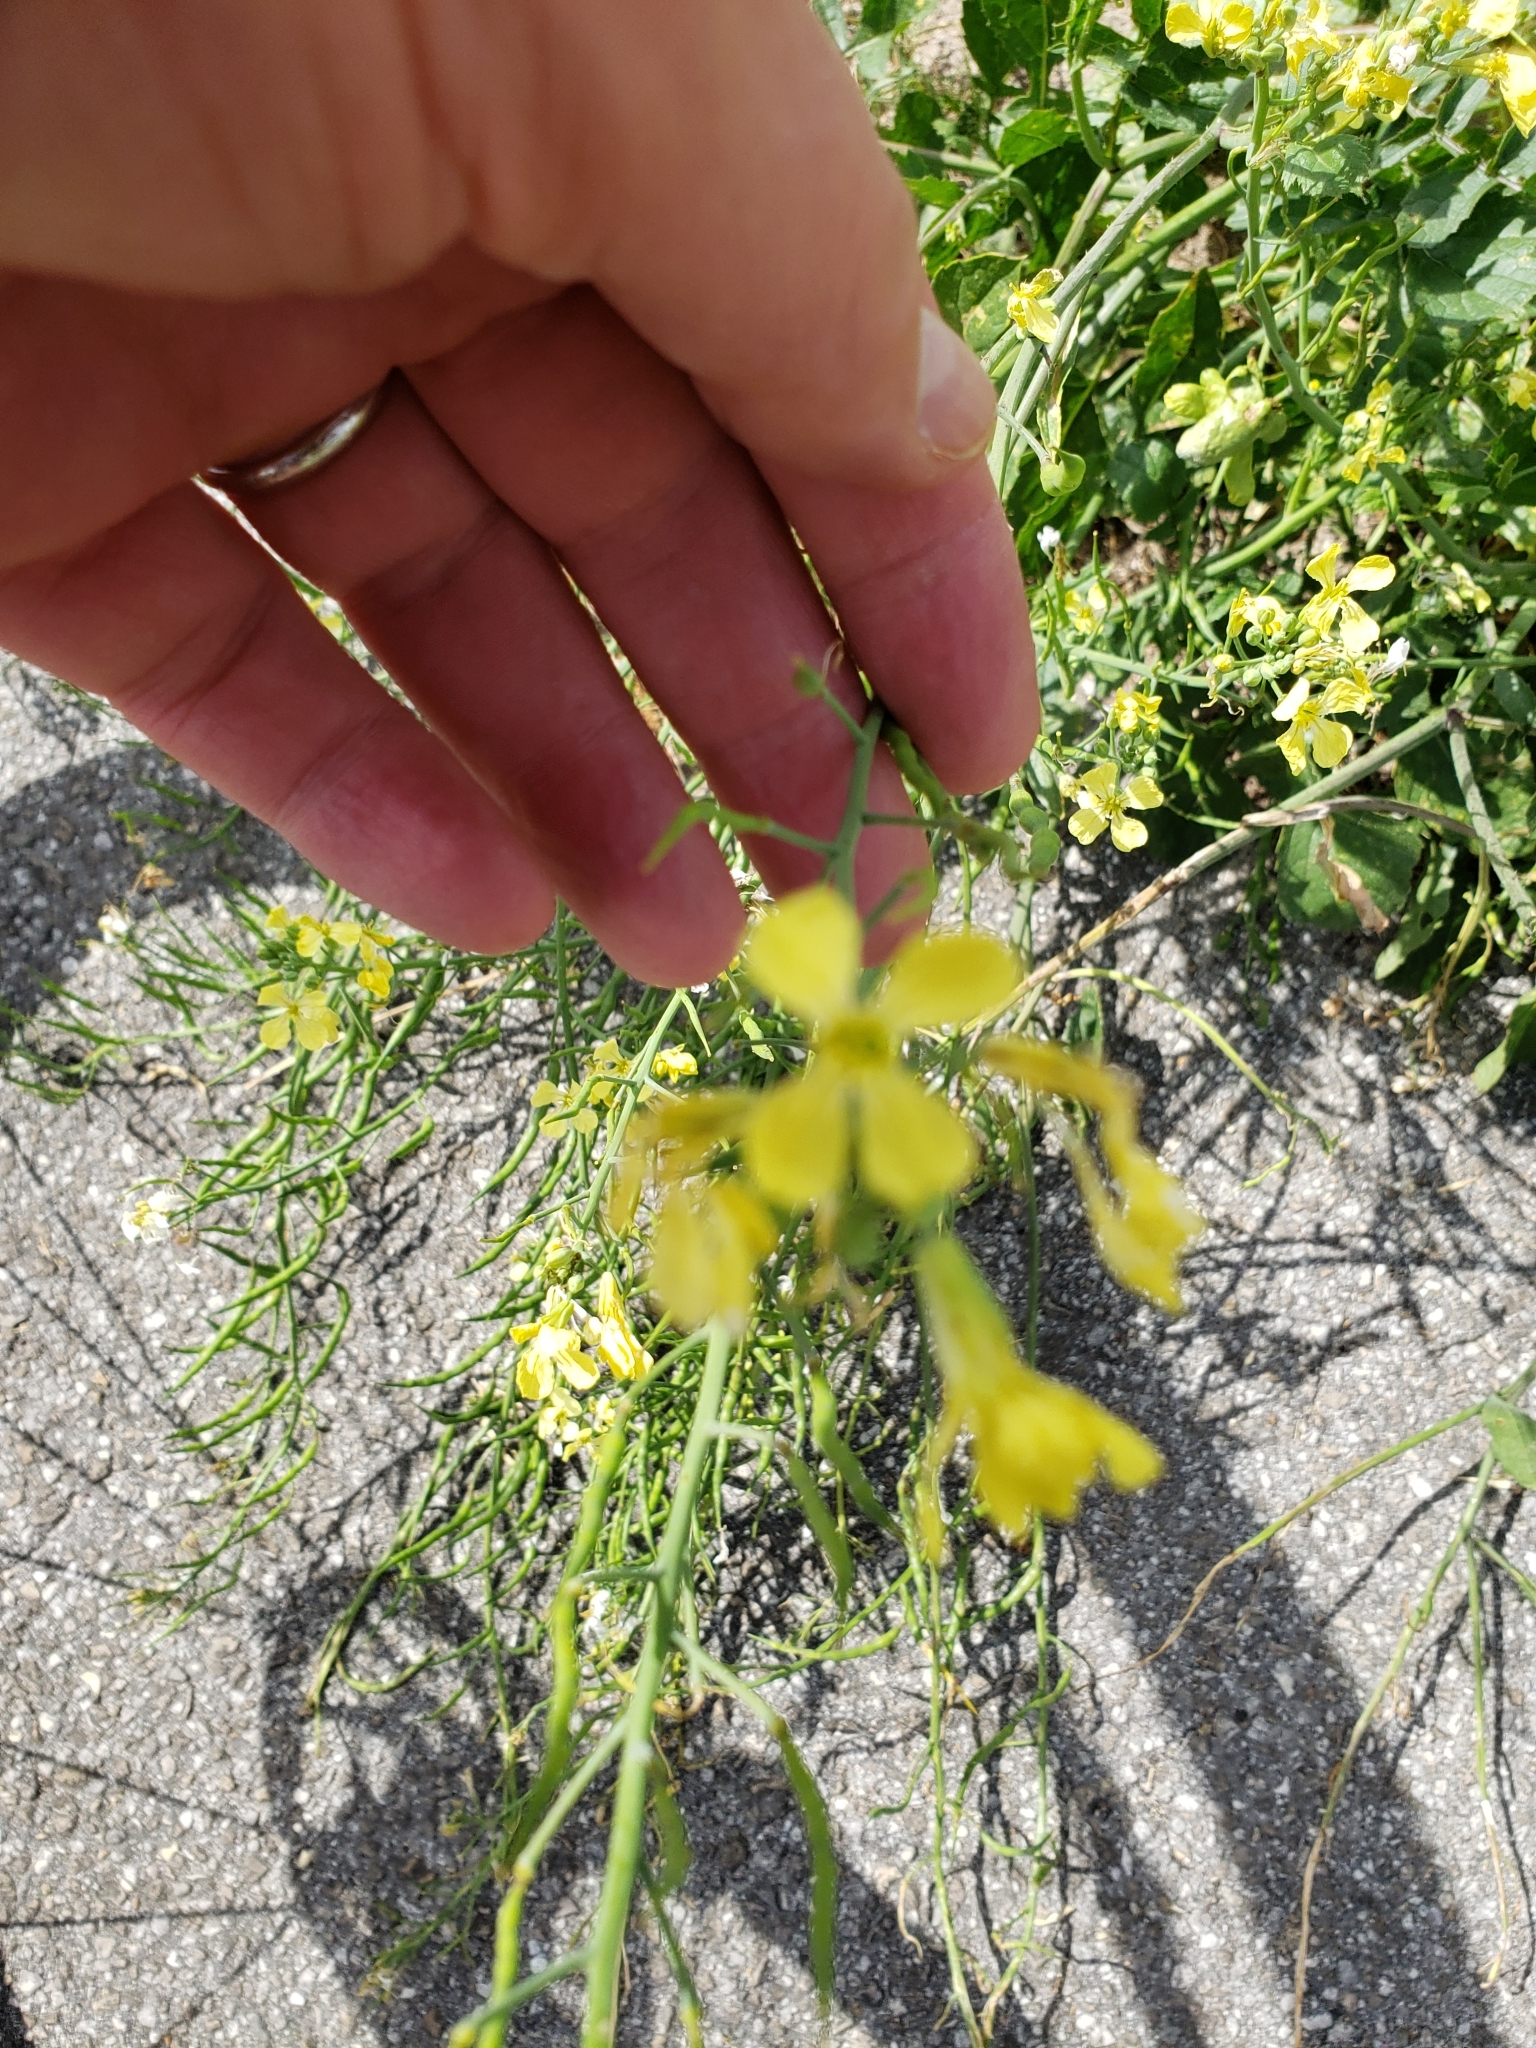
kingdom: Plantae
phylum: Tracheophyta
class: Magnoliopsida
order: Brassicales
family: Brassicaceae
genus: Raphanus
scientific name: Raphanus raphanistrum
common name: Wild radish
